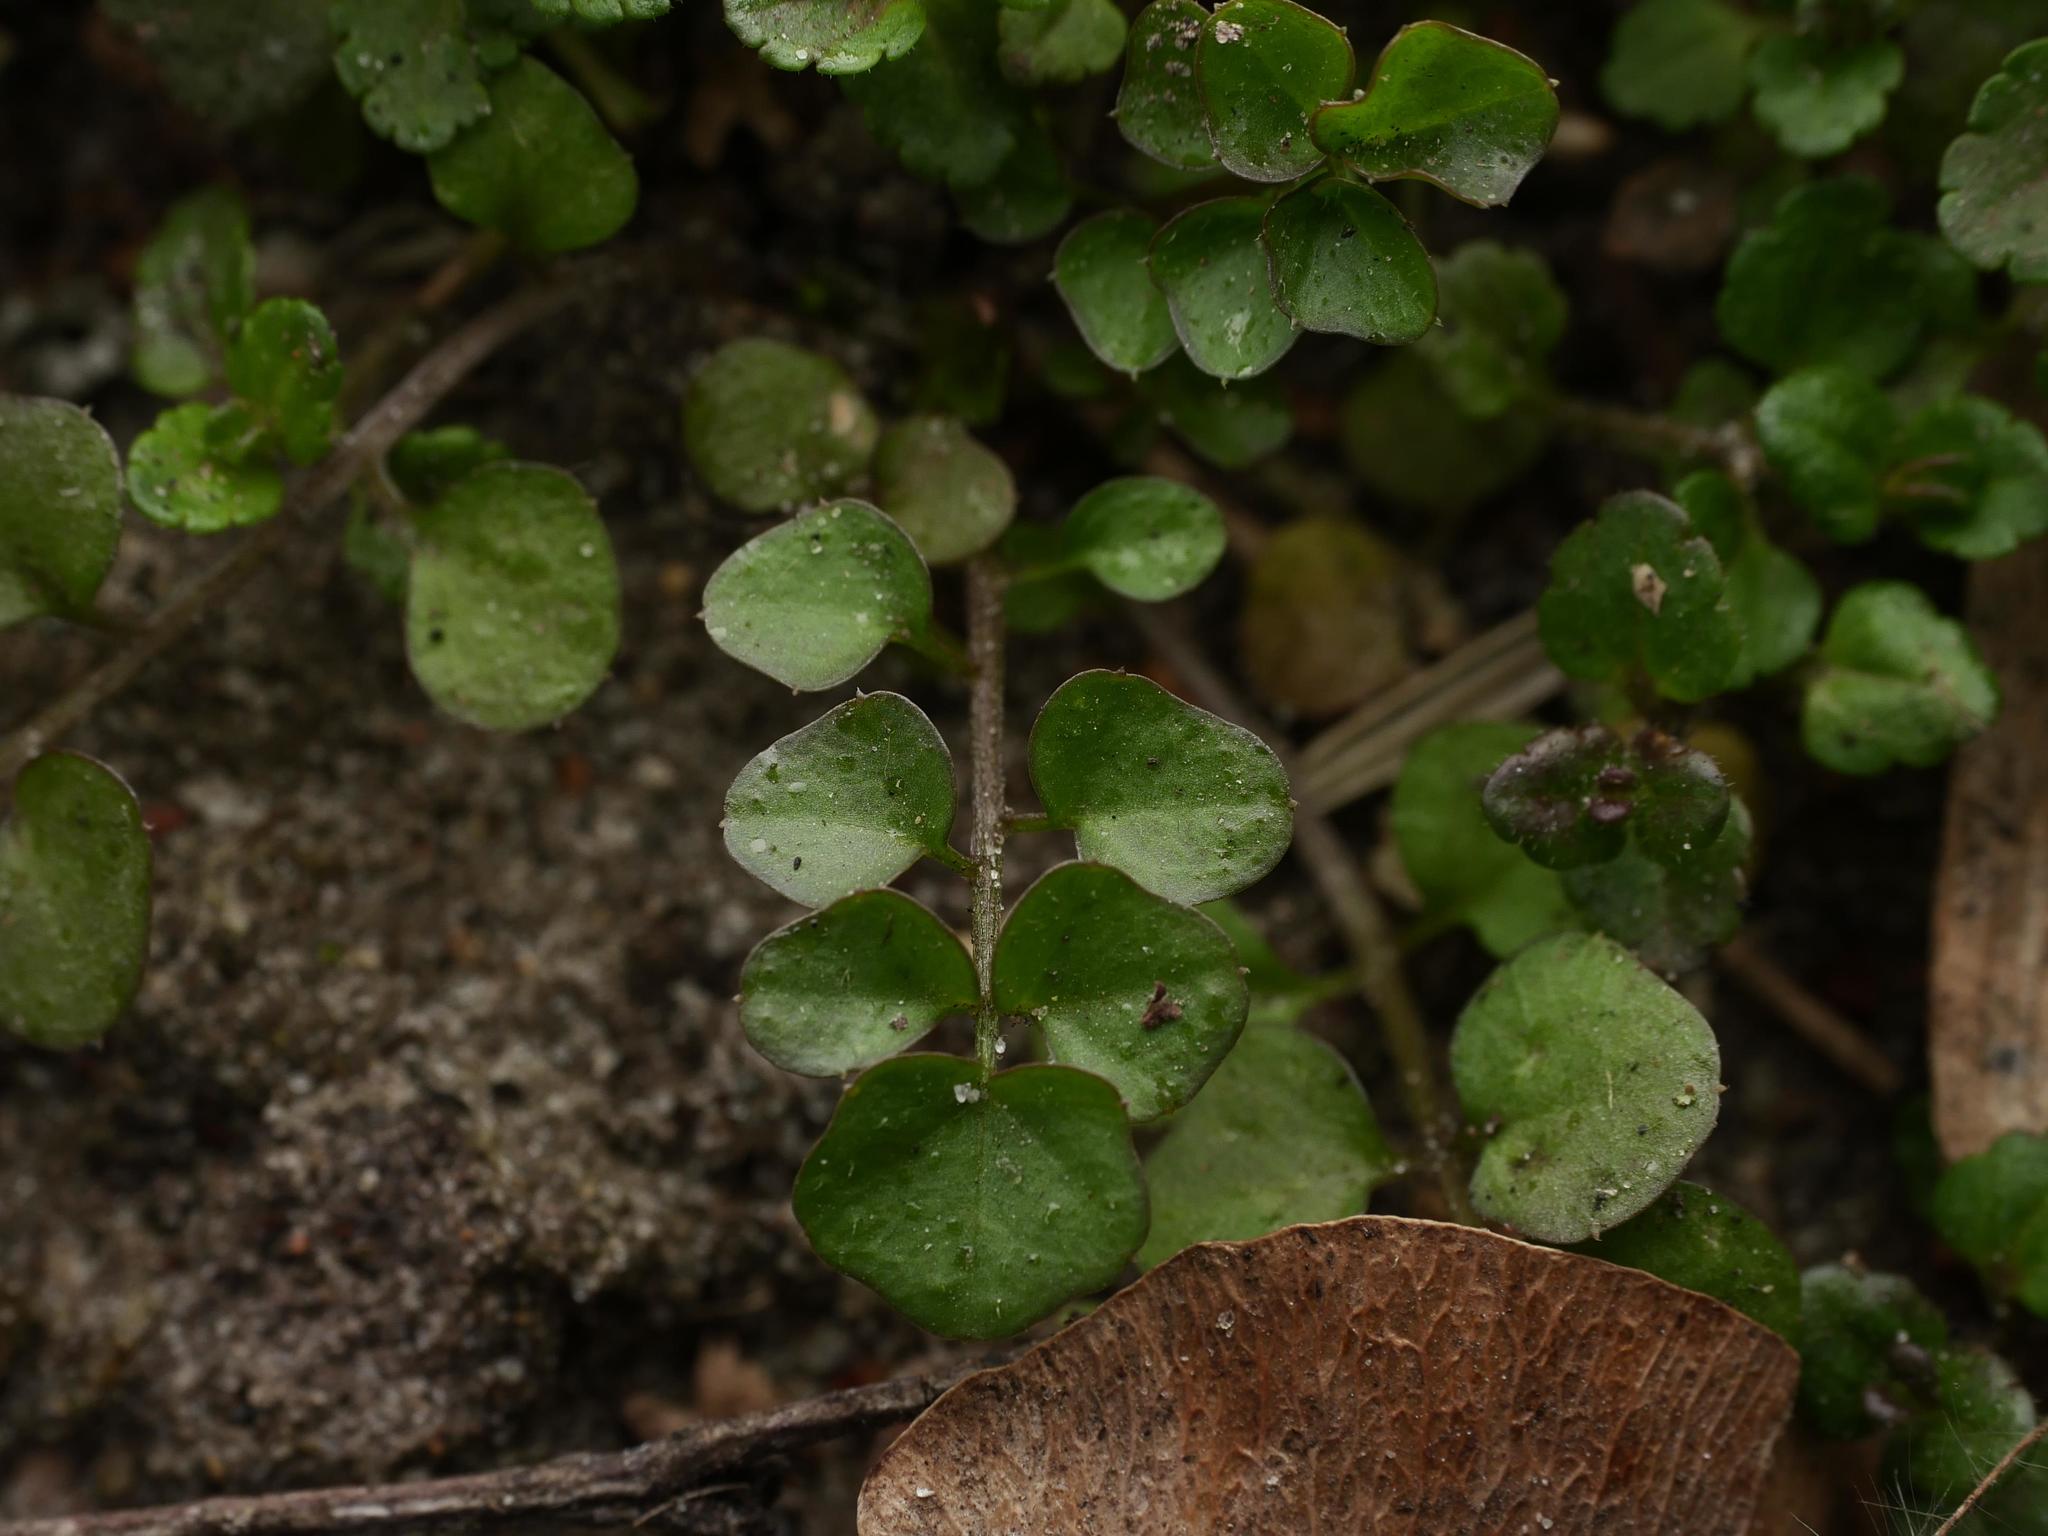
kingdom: Plantae
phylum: Tracheophyta
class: Magnoliopsida
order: Brassicales
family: Brassicaceae
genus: Cardamine
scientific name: Cardamine hirsuta
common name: Hairy bittercress
